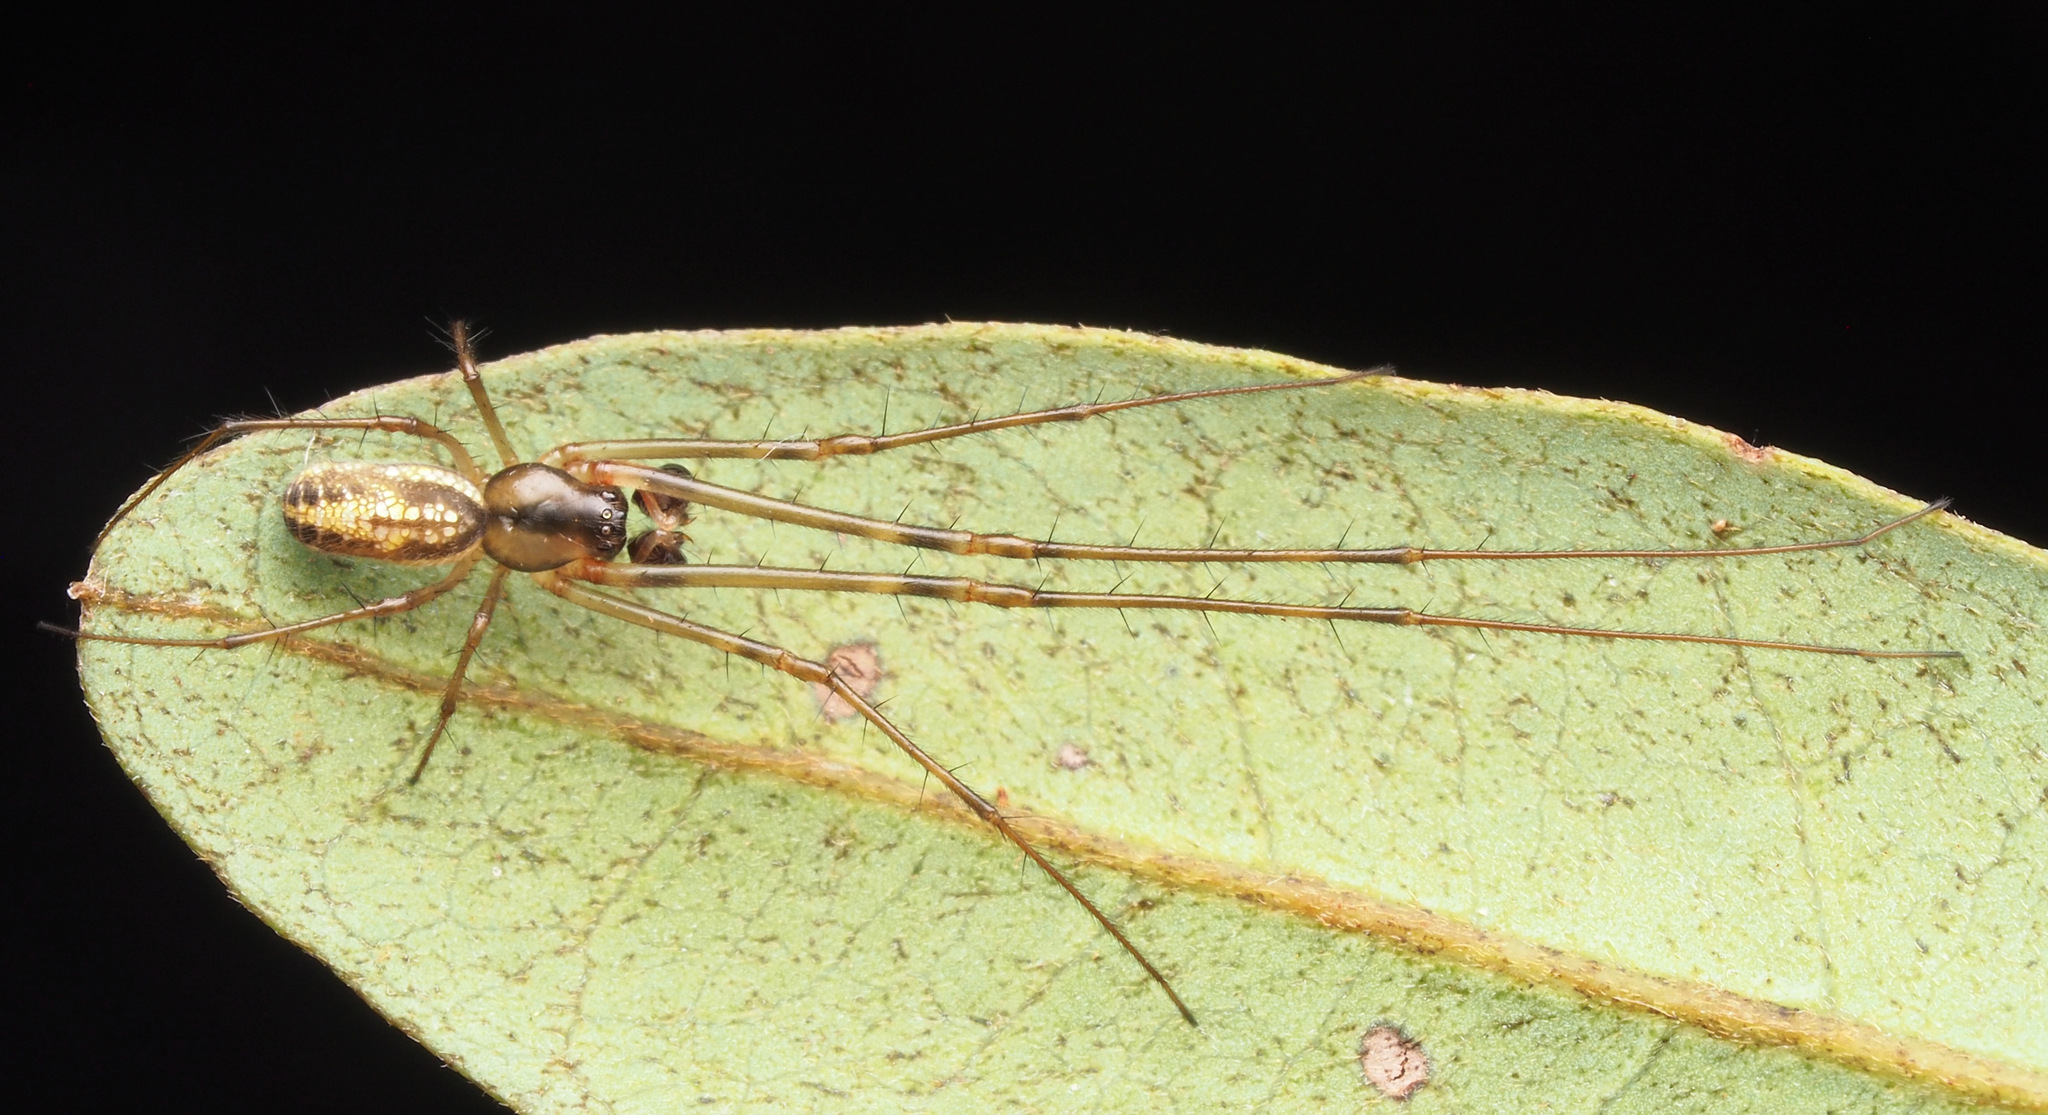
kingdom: Animalia
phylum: Arthropoda
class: Arachnida
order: Araneae
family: Tetragnathidae
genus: Tylorida
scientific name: Tylorida
